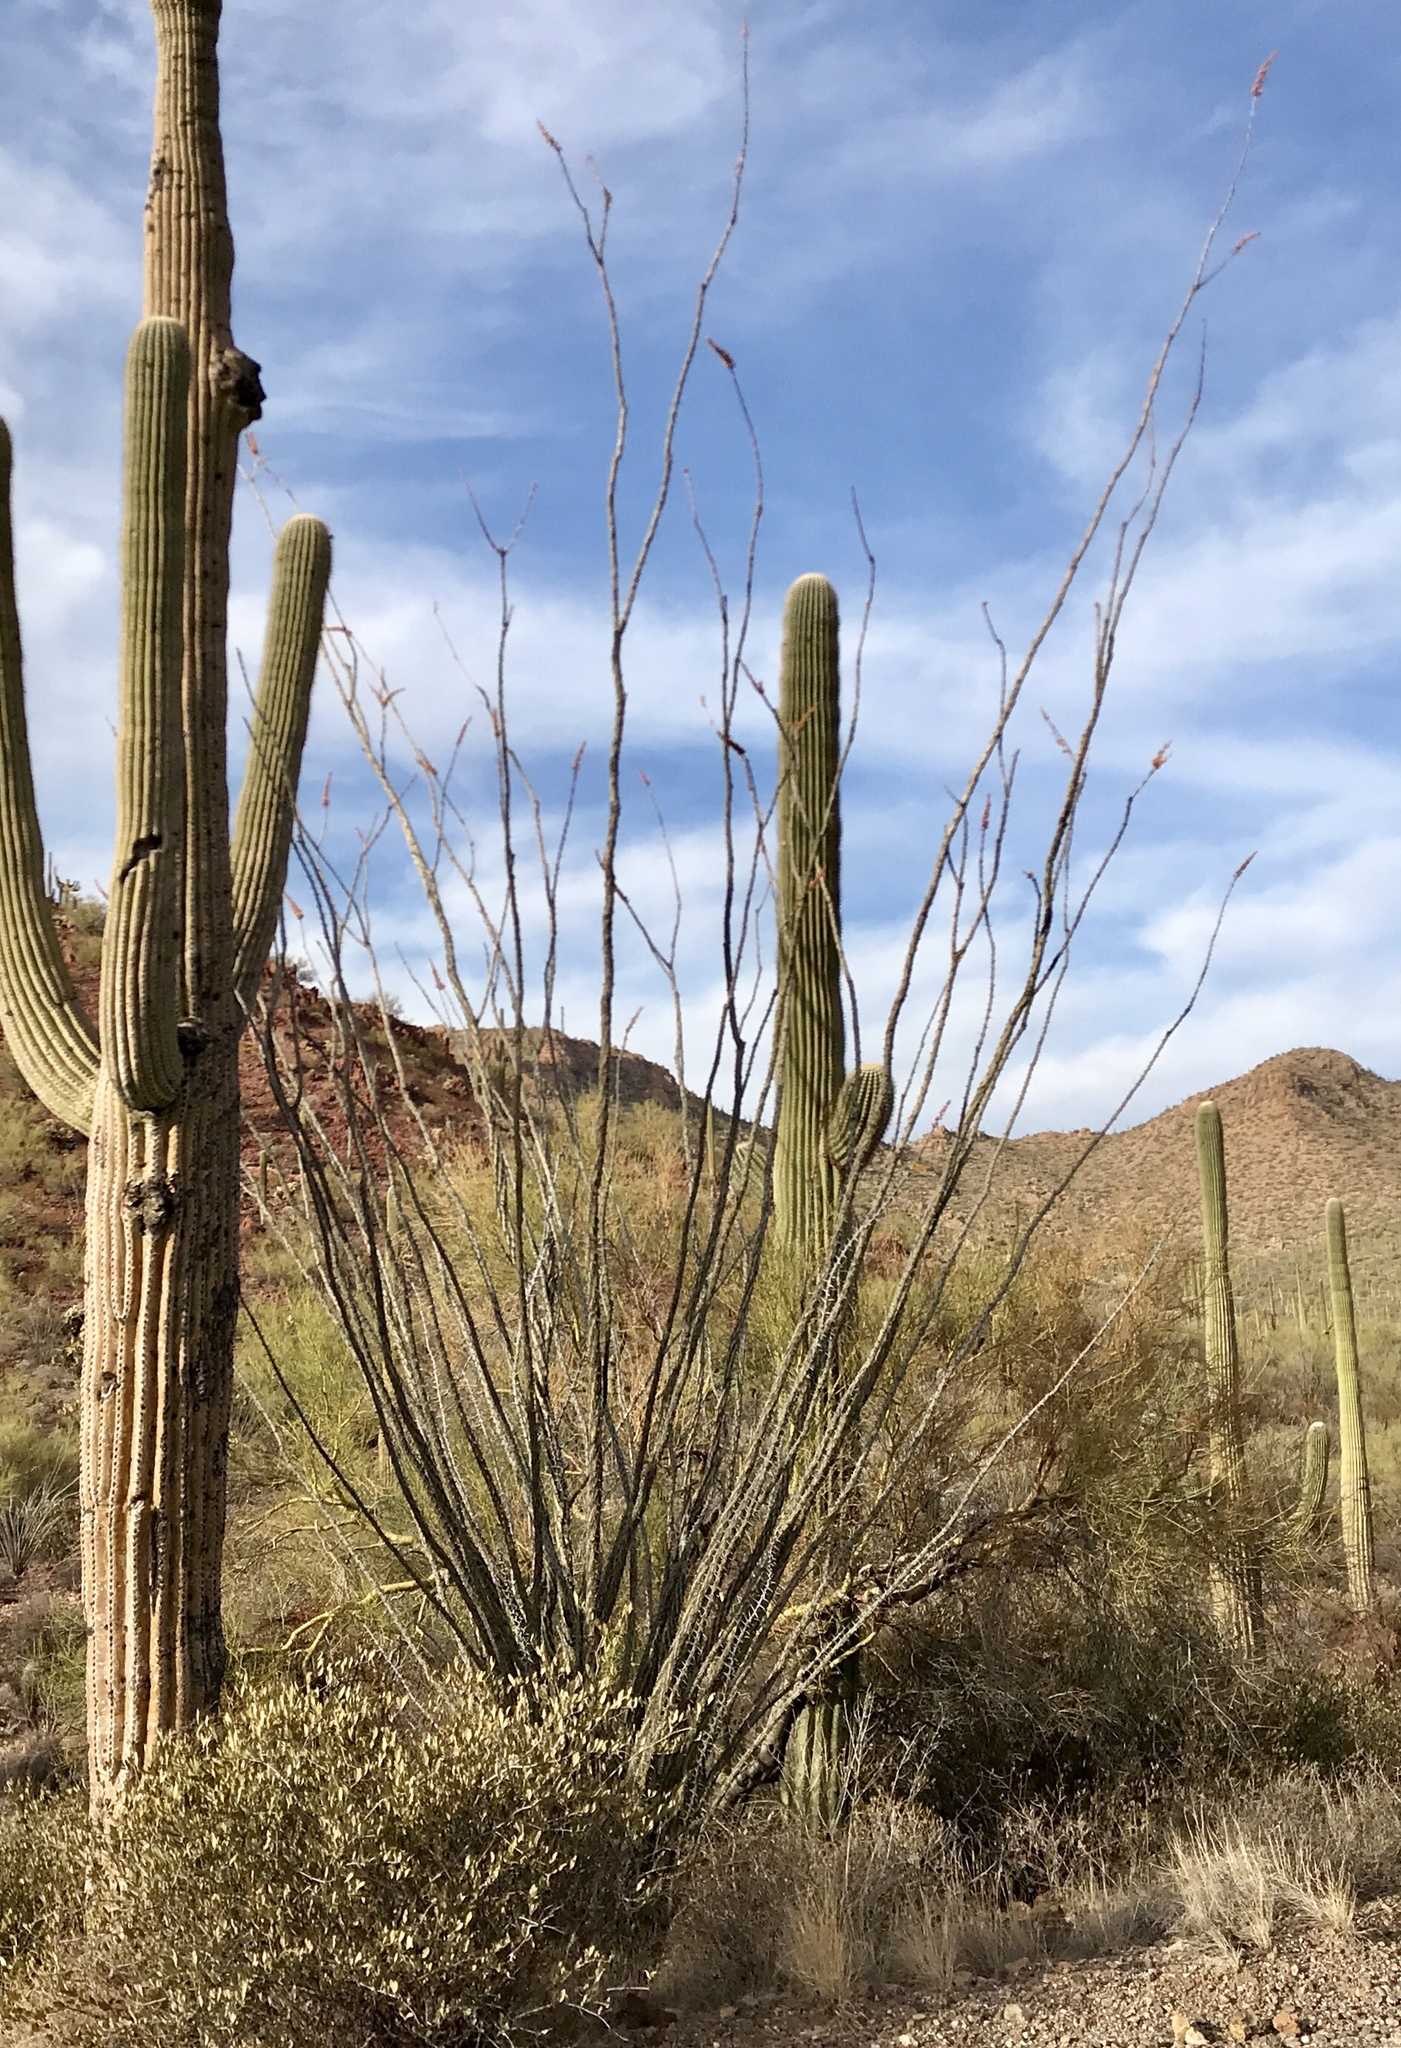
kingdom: Plantae
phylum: Tracheophyta
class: Magnoliopsida
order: Ericales
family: Fouquieriaceae
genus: Fouquieria
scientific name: Fouquieria splendens
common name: Vine-cactus
